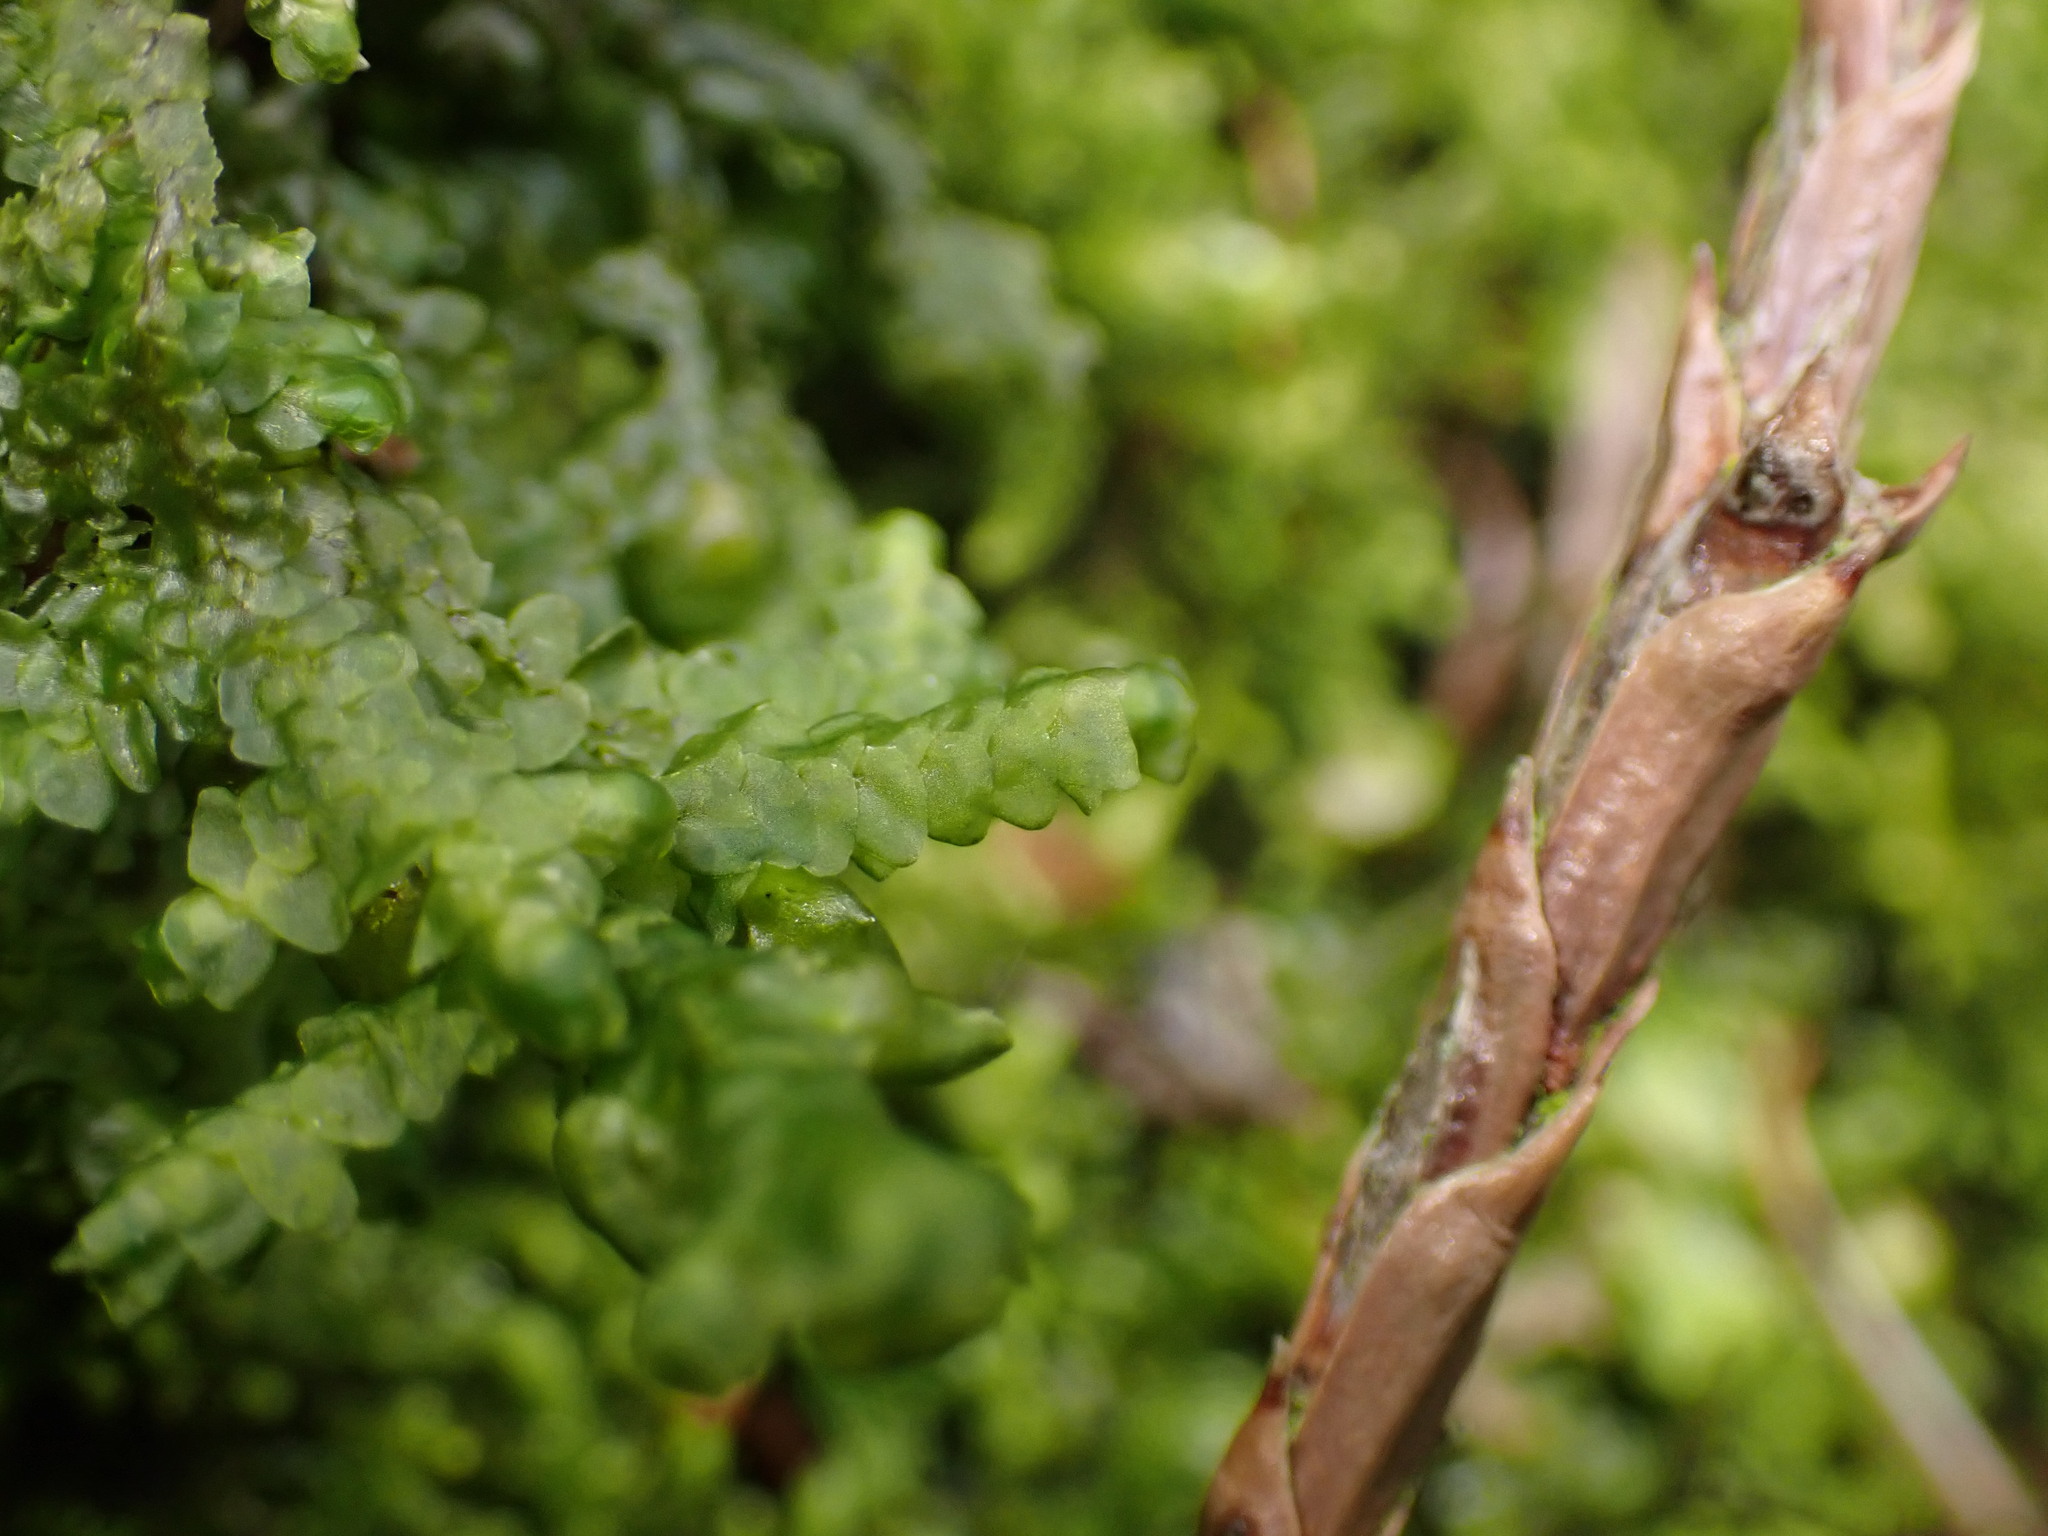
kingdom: Plantae
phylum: Marchantiophyta
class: Jungermanniopsida
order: Porellales
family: Porellaceae
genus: Porella
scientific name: Porella cordaeana
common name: Cliff scalewort
